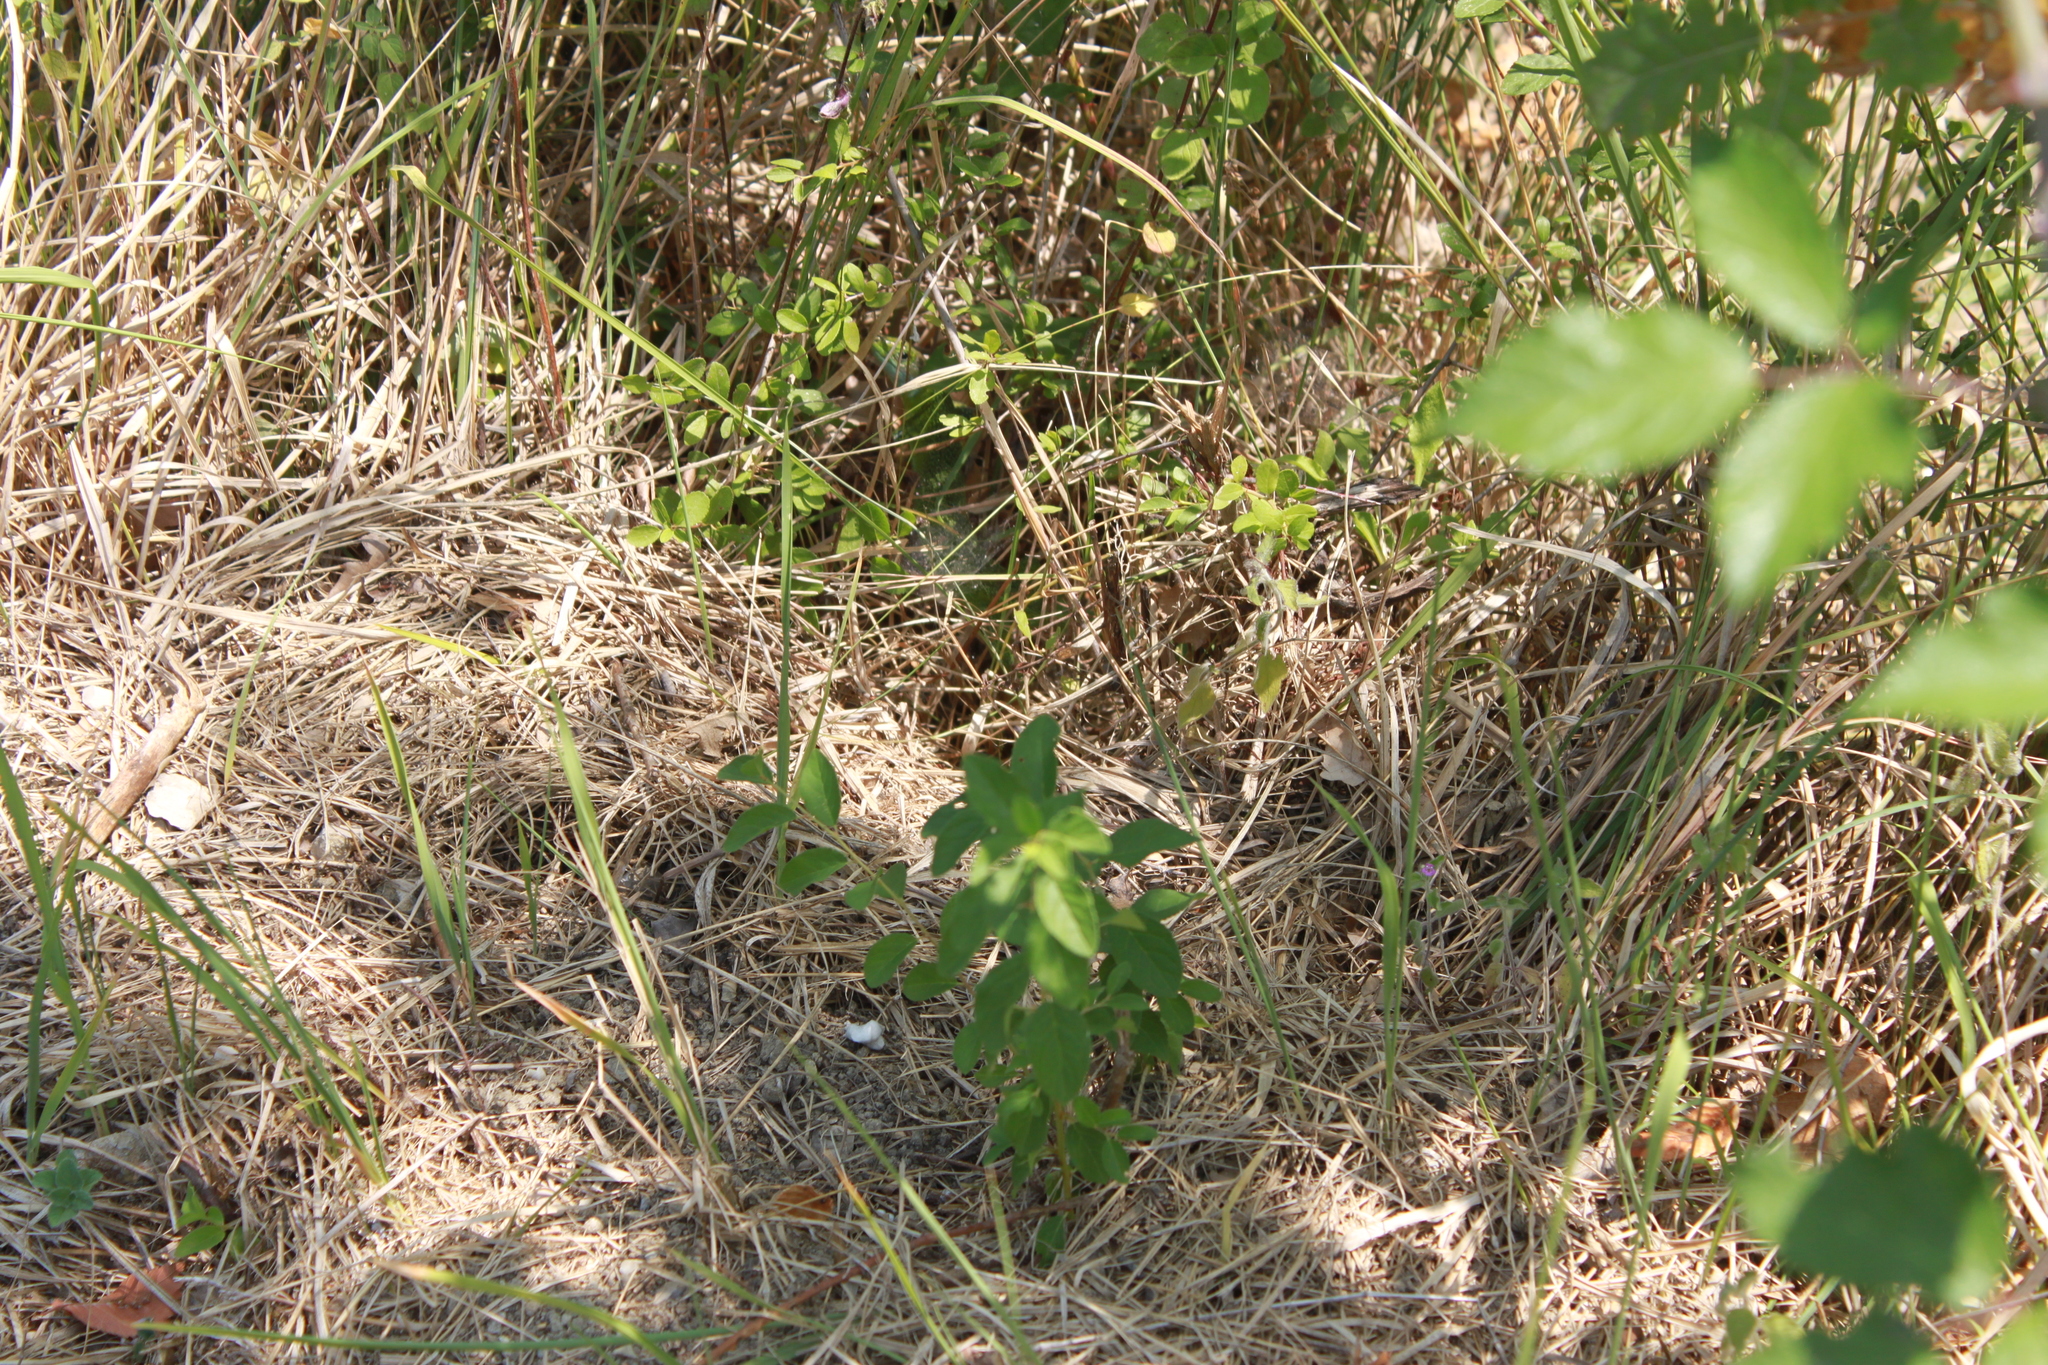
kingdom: Animalia
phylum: Chordata
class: Squamata
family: Lacertidae
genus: Lacerta
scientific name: Lacerta bilineata
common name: Western green lizard
